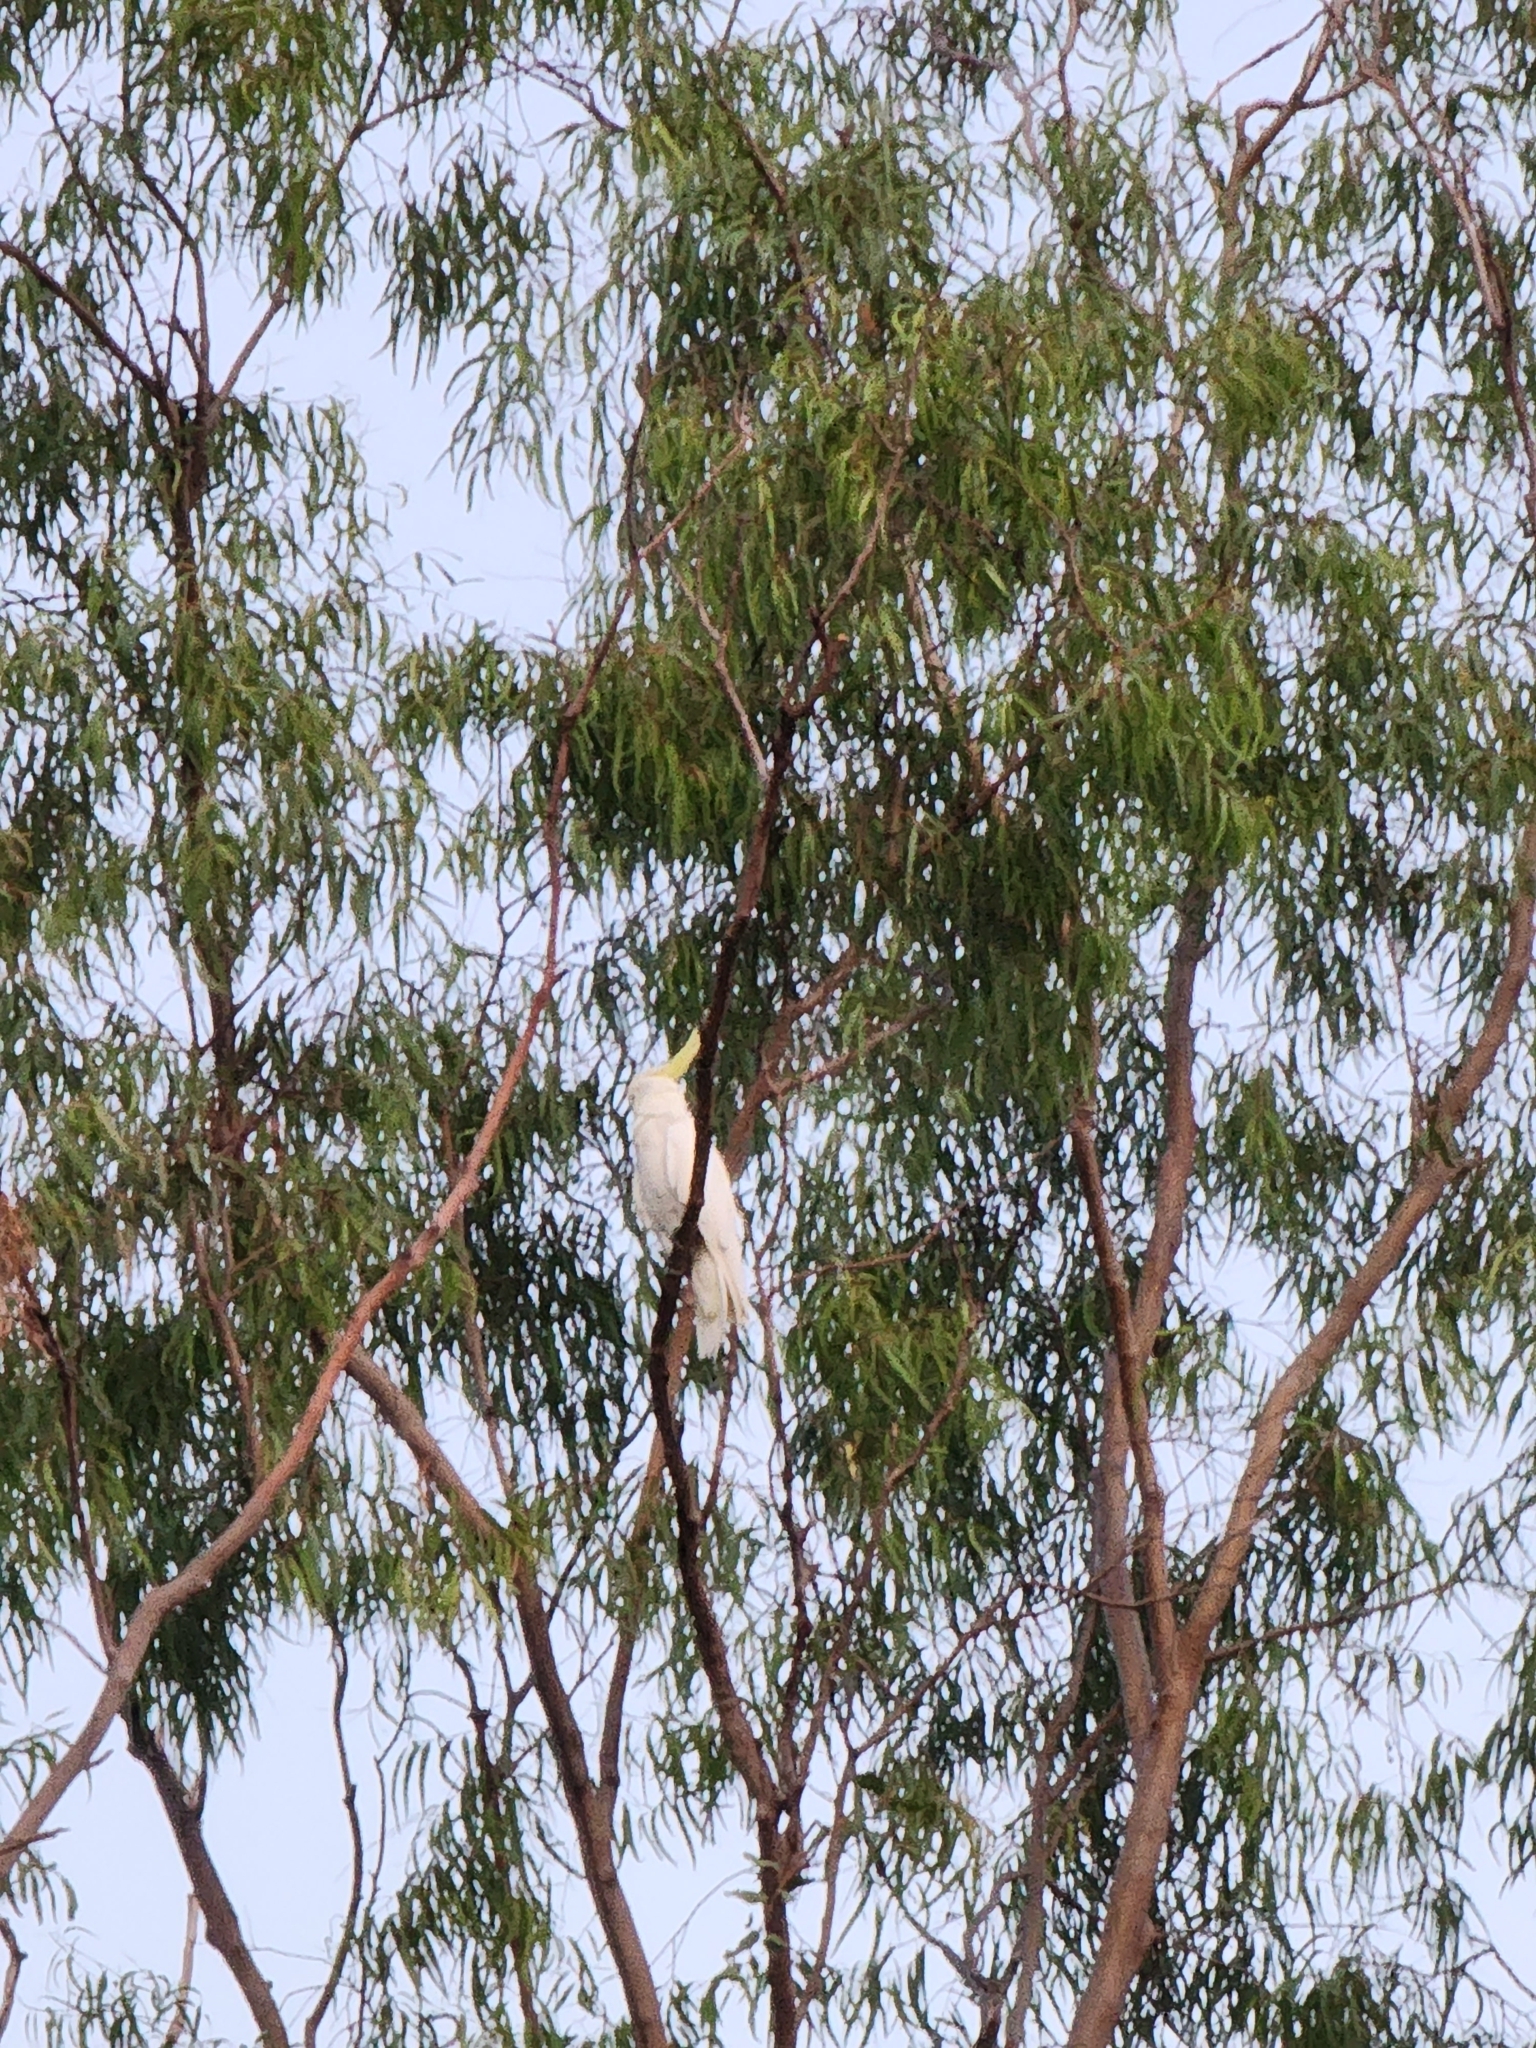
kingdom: Animalia
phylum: Chordata
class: Aves
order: Psittaciformes
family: Psittacidae
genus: Cacatua
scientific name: Cacatua galerita
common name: Sulphur-crested cockatoo
